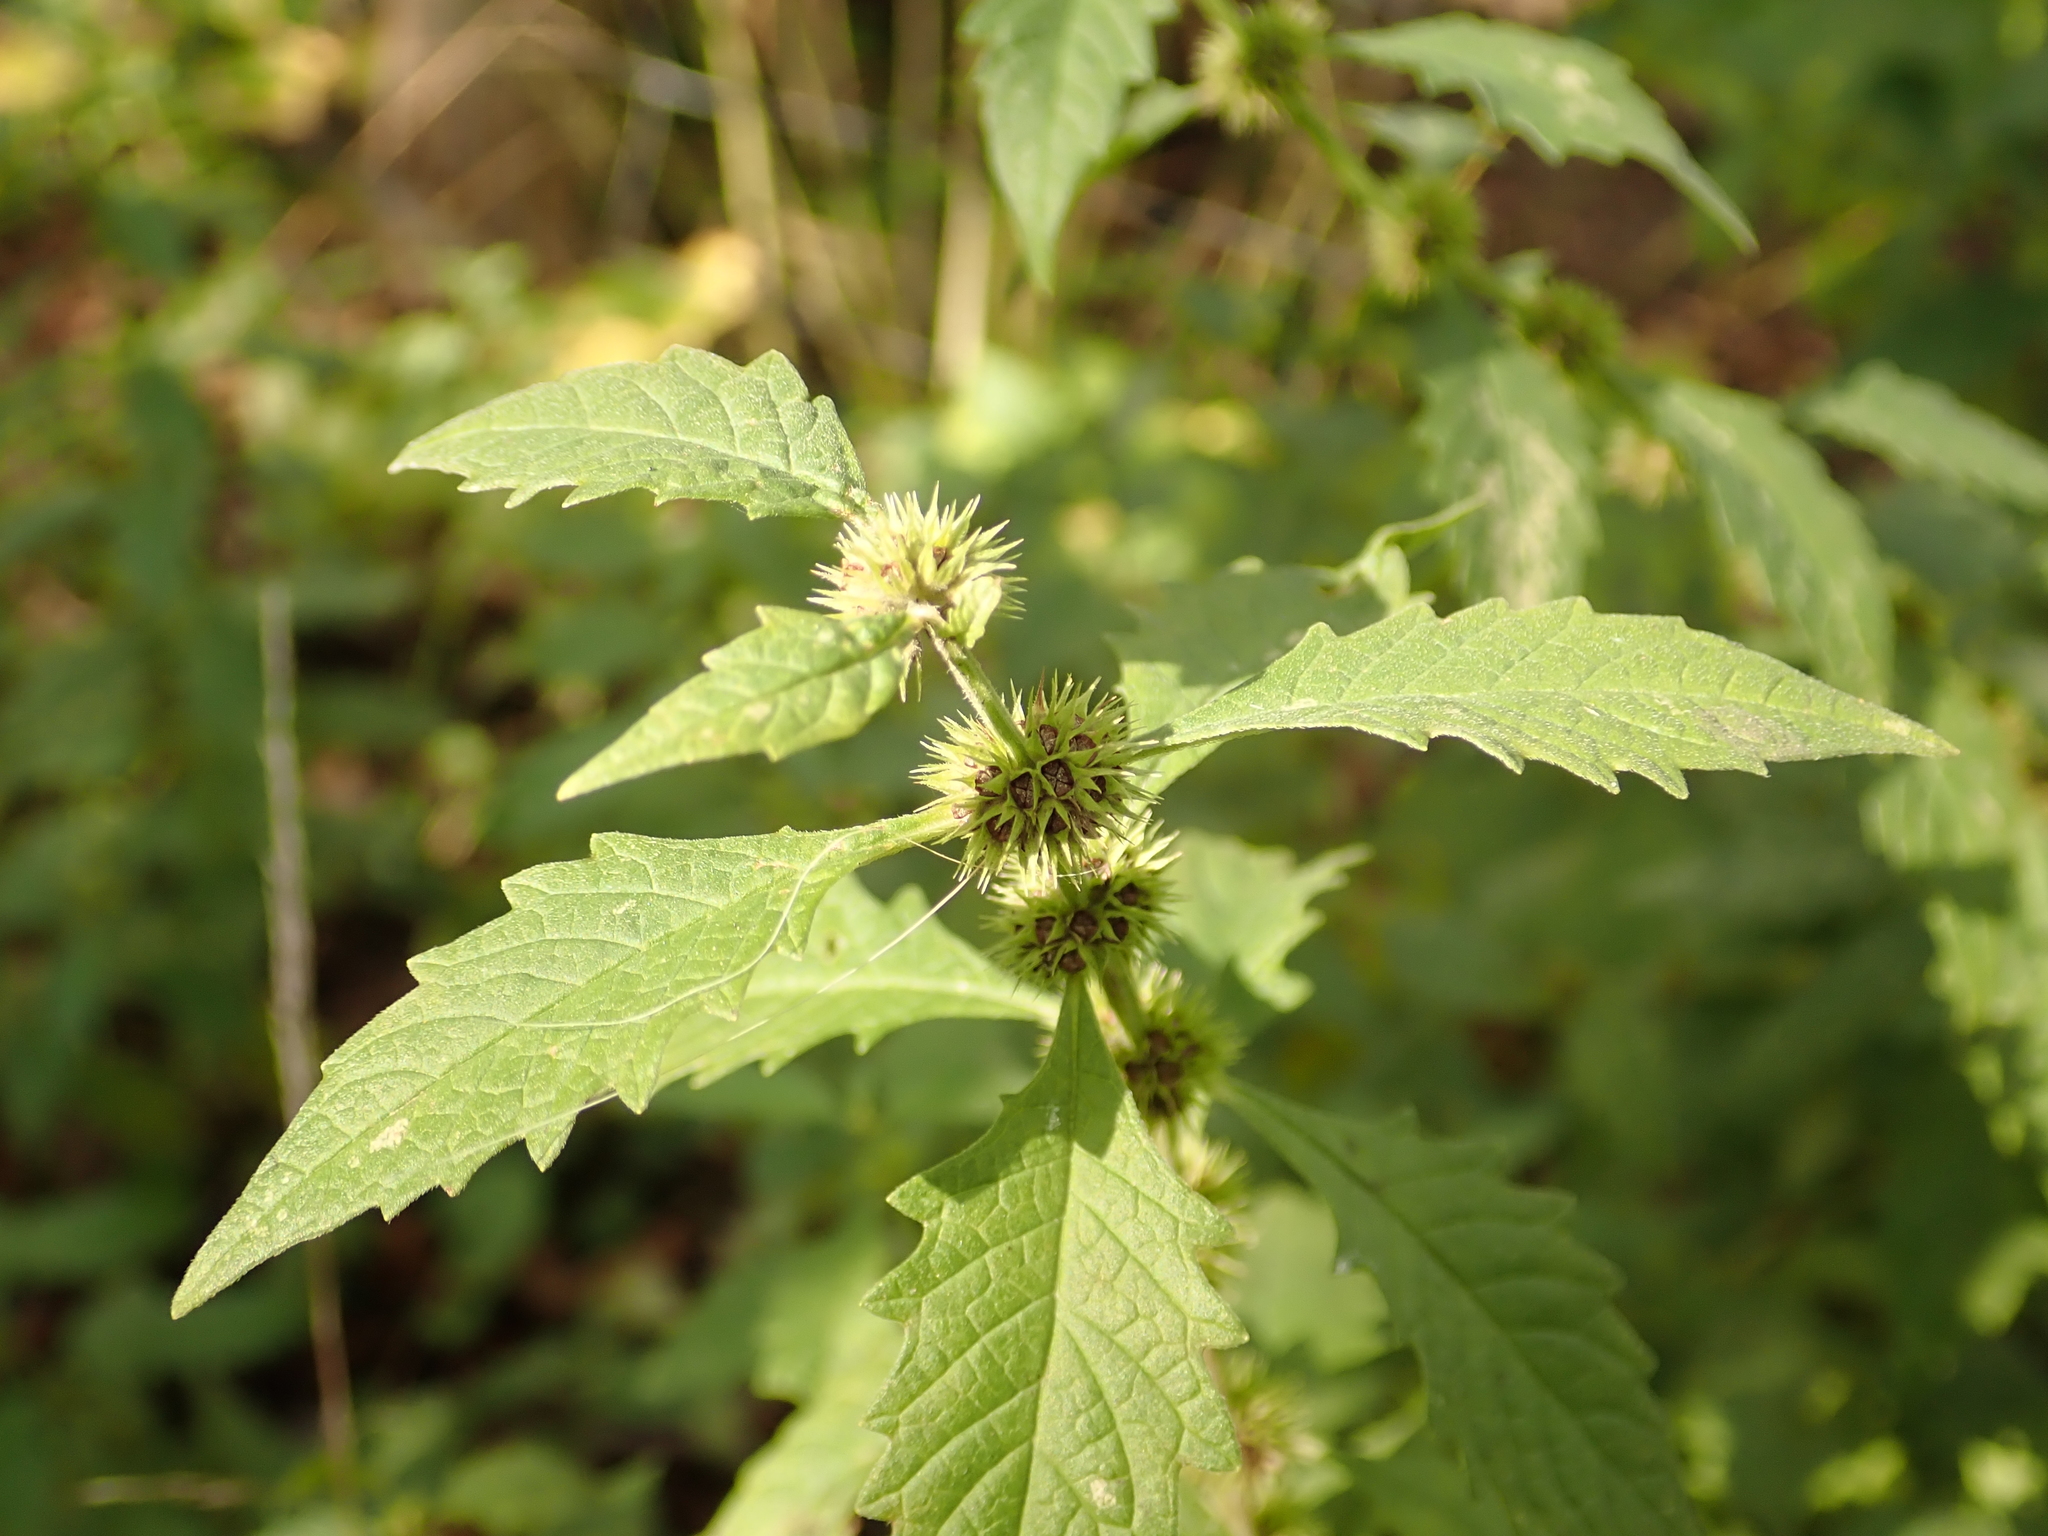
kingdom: Plantae
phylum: Tracheophyta
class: Magnoliopsida
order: Lamiales
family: Lamiaceae
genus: Lycopus
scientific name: Lycopus europaeus
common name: European bugleweed
